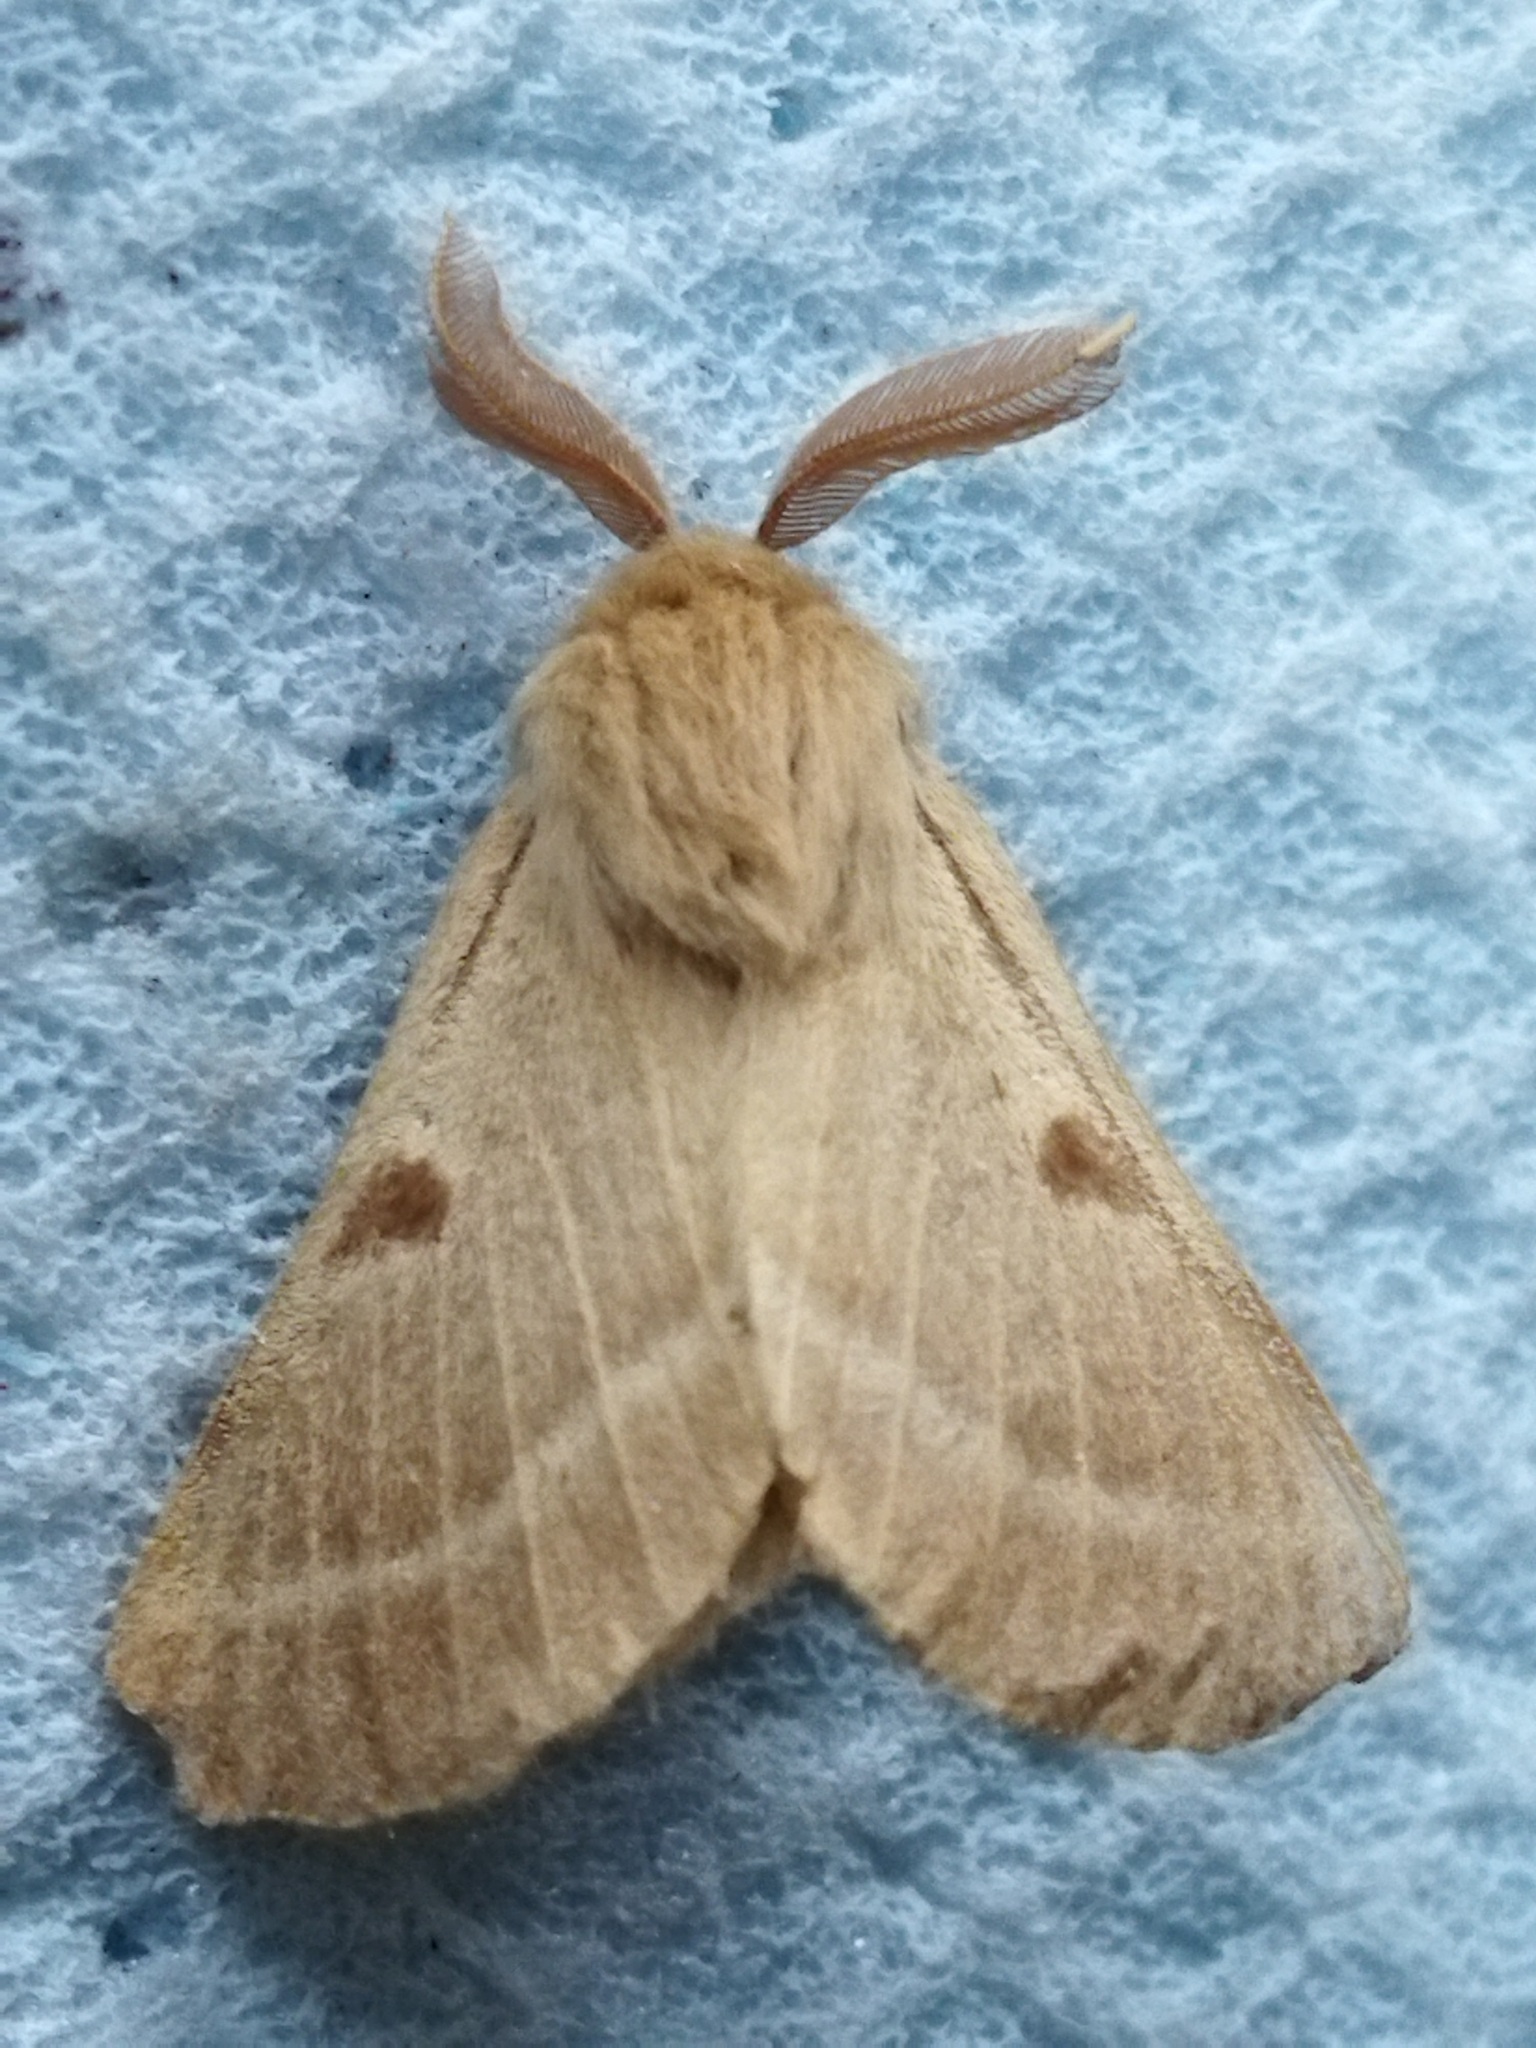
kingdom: Animalia
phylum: Arthropoda
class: Insecta
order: Lepidoptera
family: Brahmaeidae
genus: Lemonia
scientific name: Lemonia balcanica
